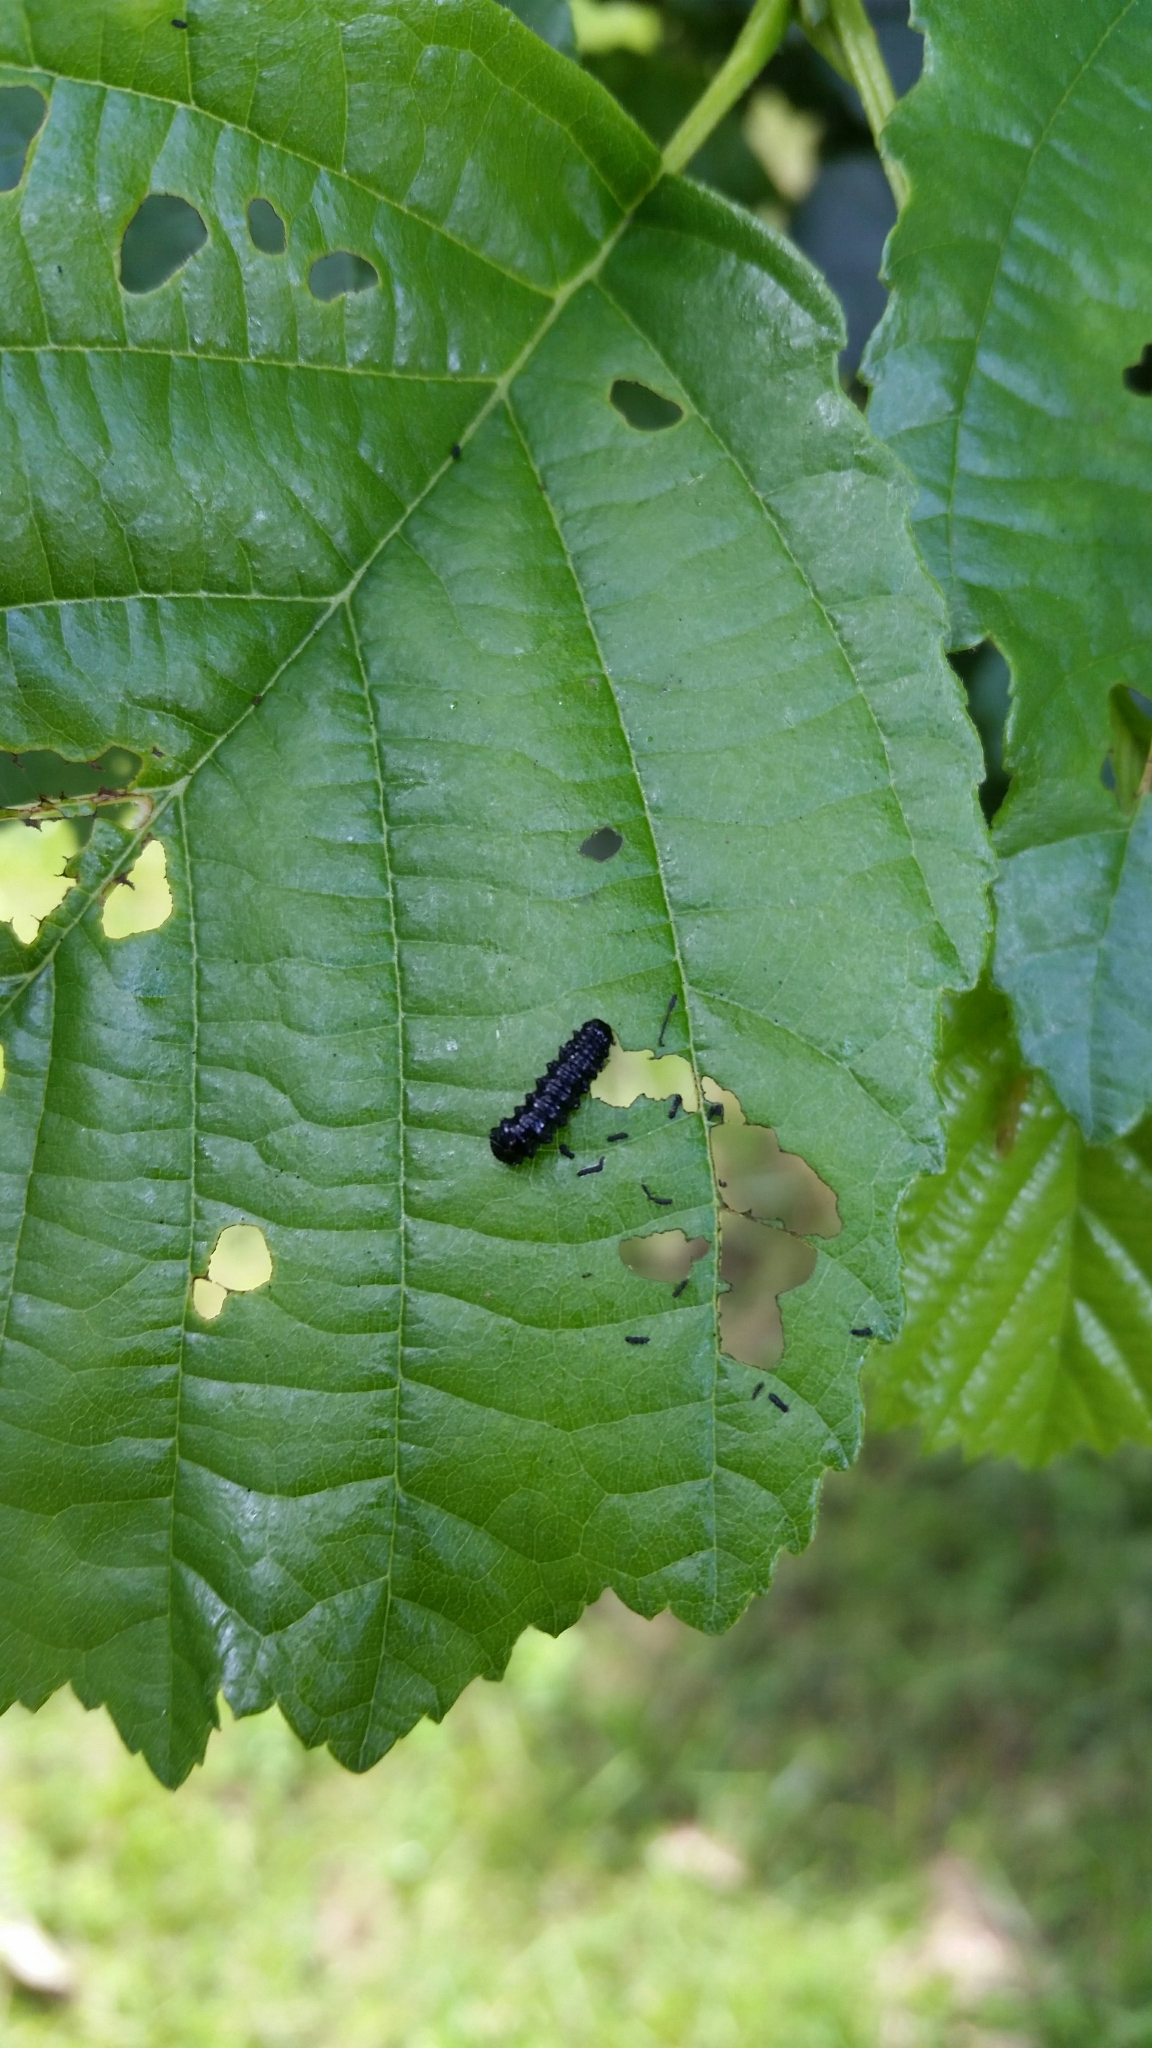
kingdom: Animalia
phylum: Arthropoda
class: Insecta
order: Coleoptera
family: Chrysomelidae
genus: Agelastica
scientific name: Agelastica alni
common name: Alder leaf beetle
